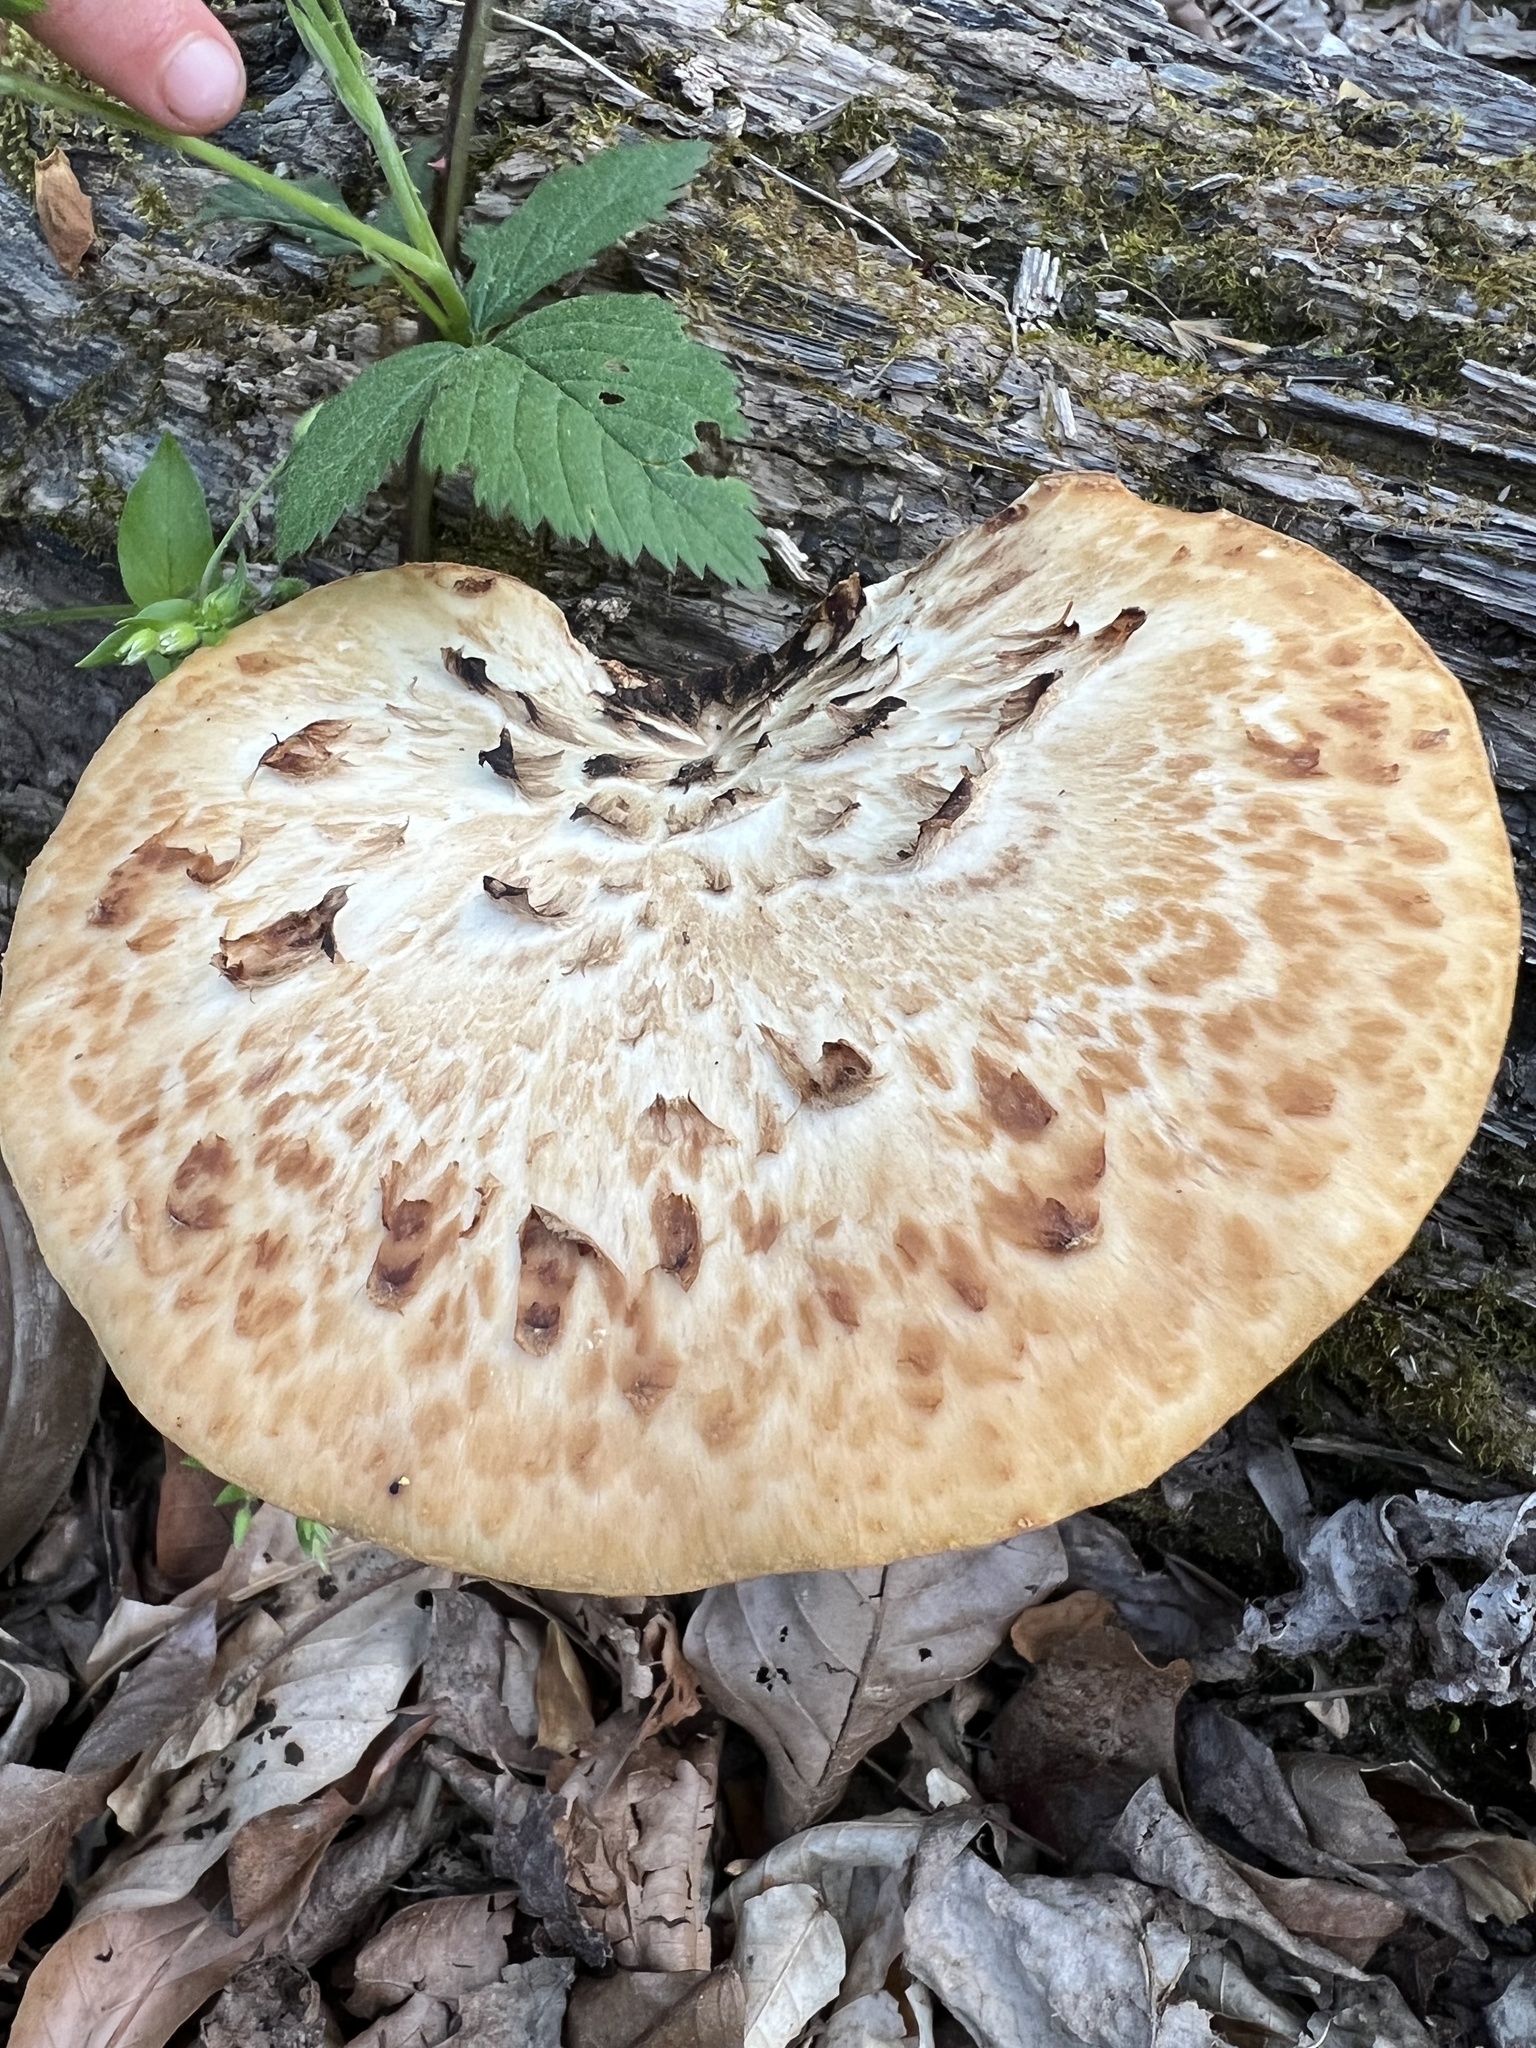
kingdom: Fungi
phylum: Basidiomycota
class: Agaricomycetes
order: Polyporales
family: Polyporaceae
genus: Cerioporus
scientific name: Cerioporus squamosus
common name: Dryad's saddle
